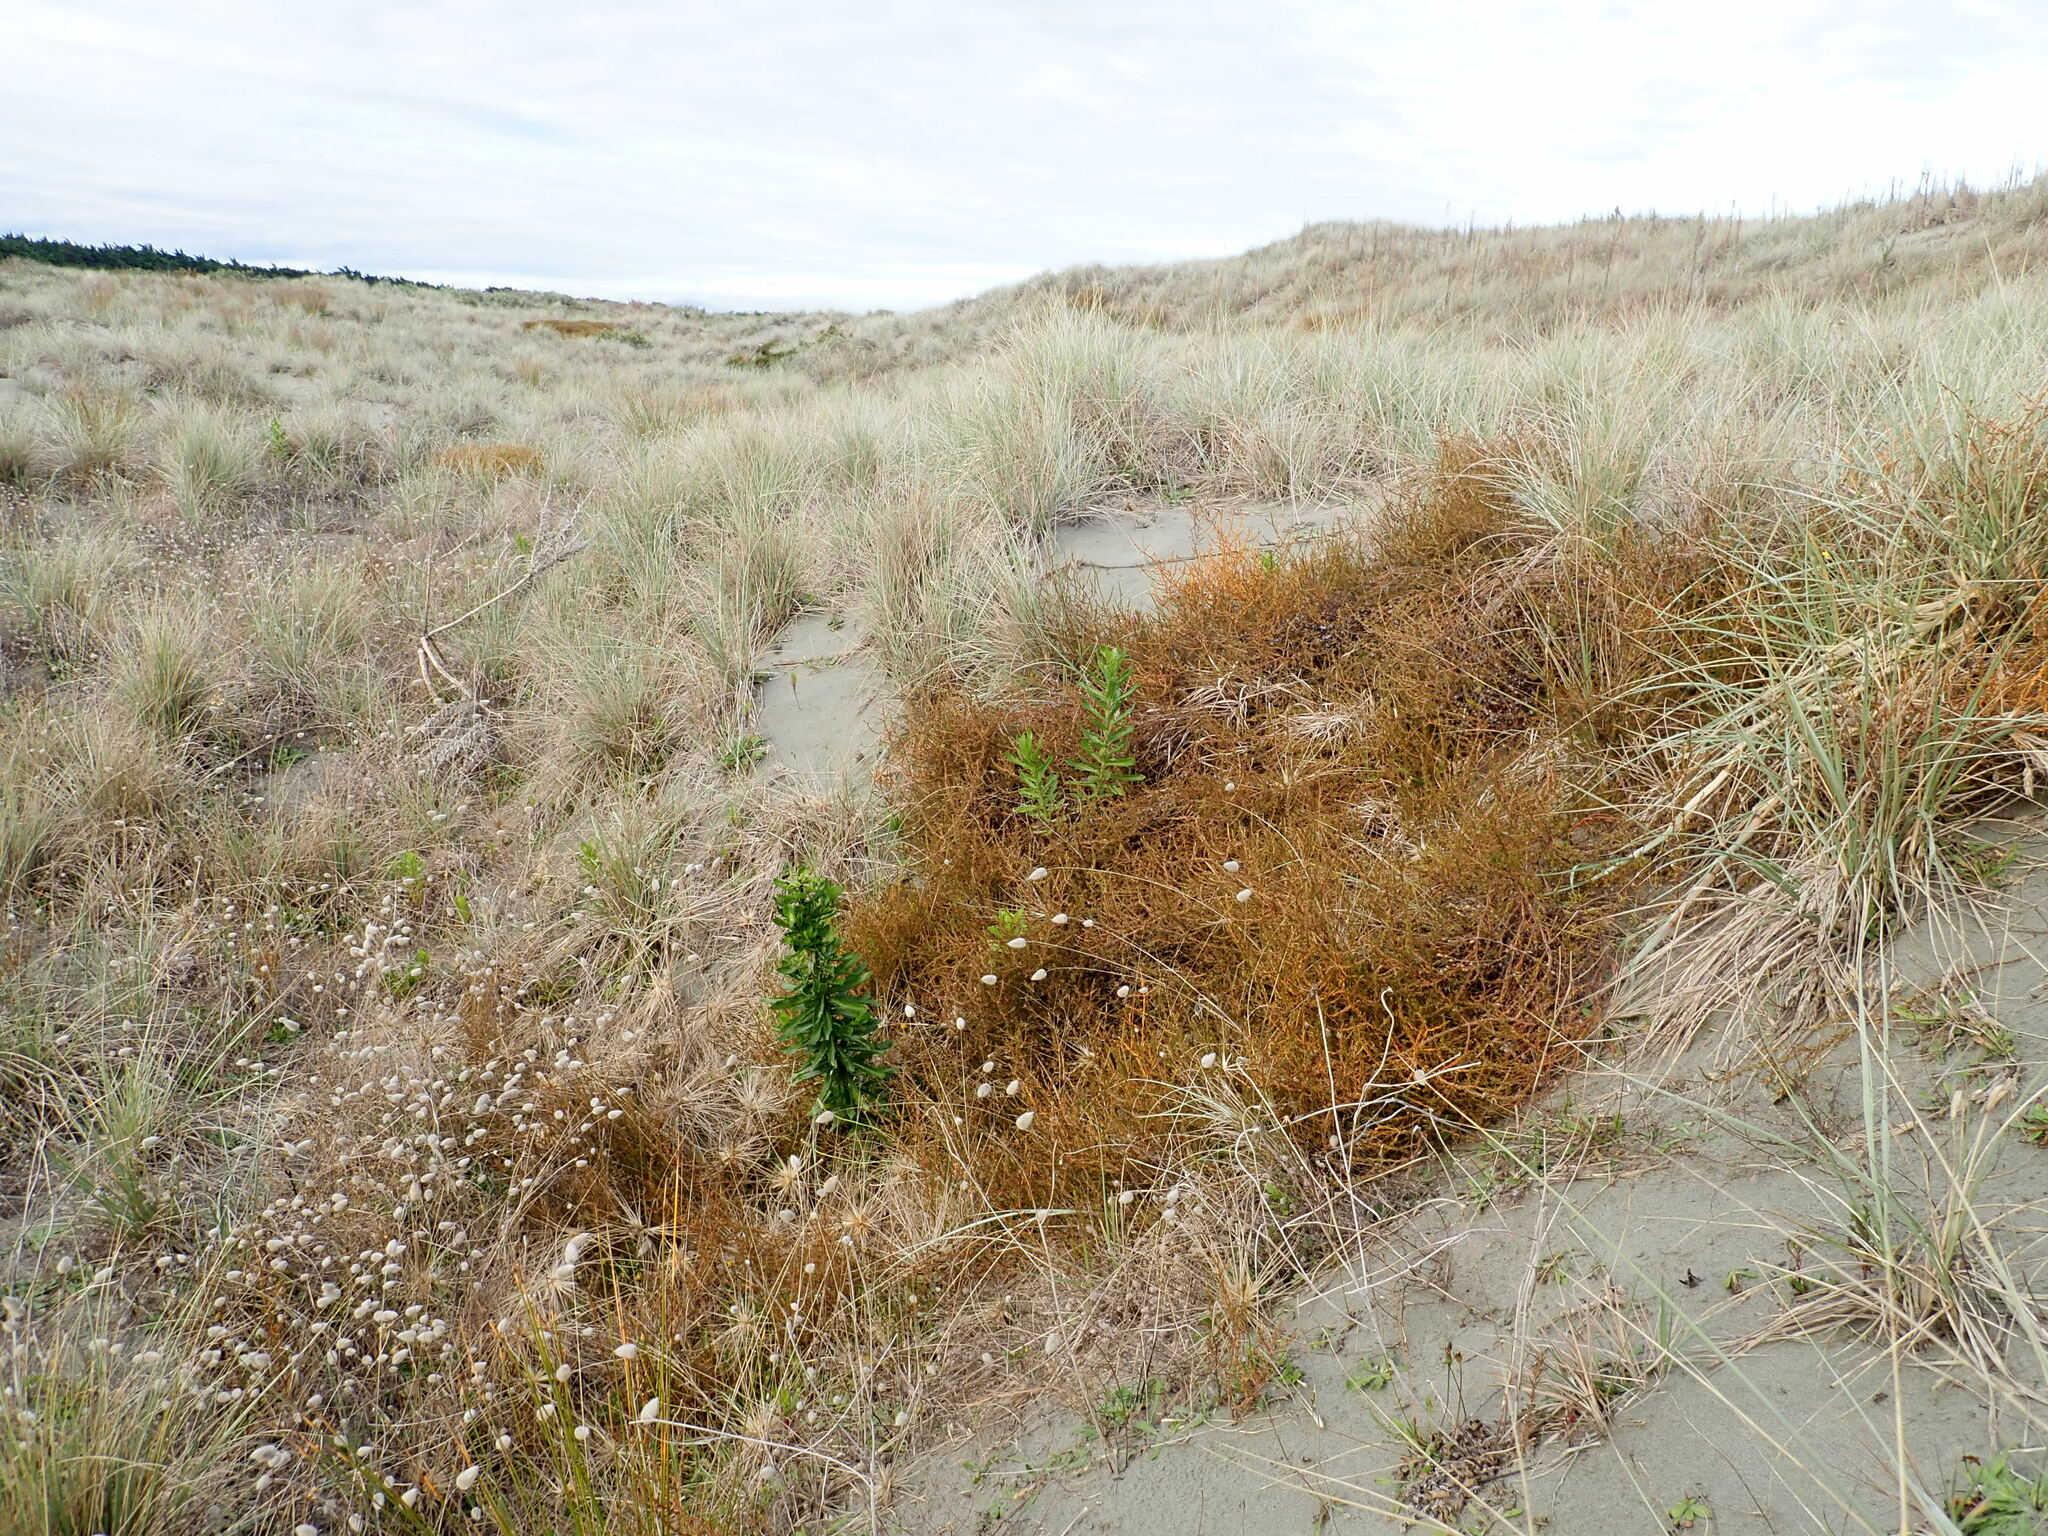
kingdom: Plantae
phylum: Tracheophyta
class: Magnoliopsida
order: Gentianales
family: Rubiaceae
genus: Coprosma
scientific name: Coprosma acerosa
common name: Sand coprosma
